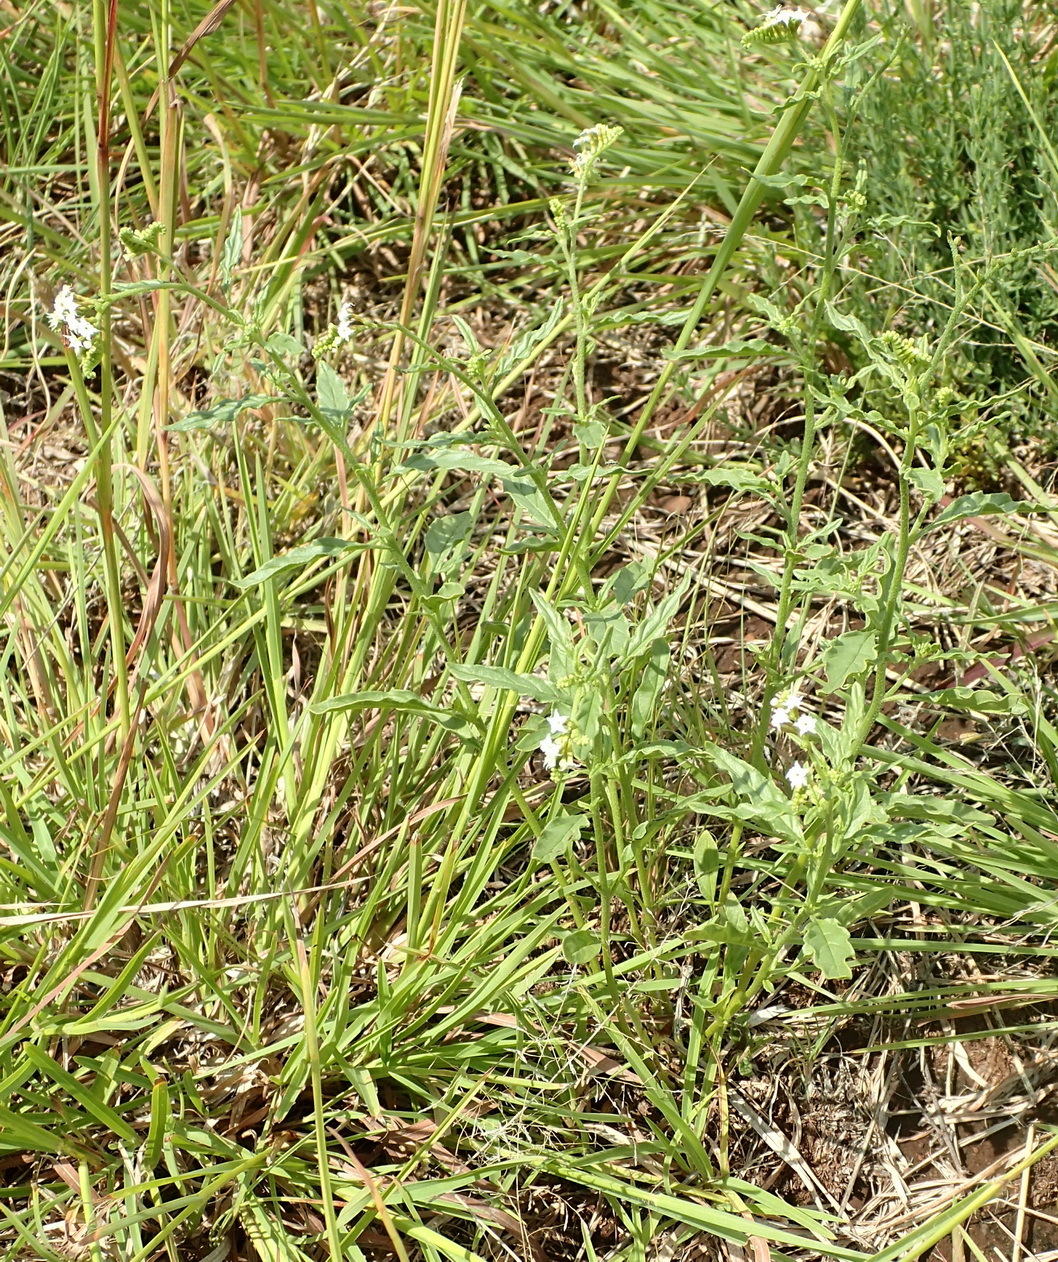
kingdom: Plantae
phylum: Tracheophyta
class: Magnoliopsida
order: Boraginales
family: Heliotropiaceae
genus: Heliotropium
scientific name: Heliotropium ciliatum
